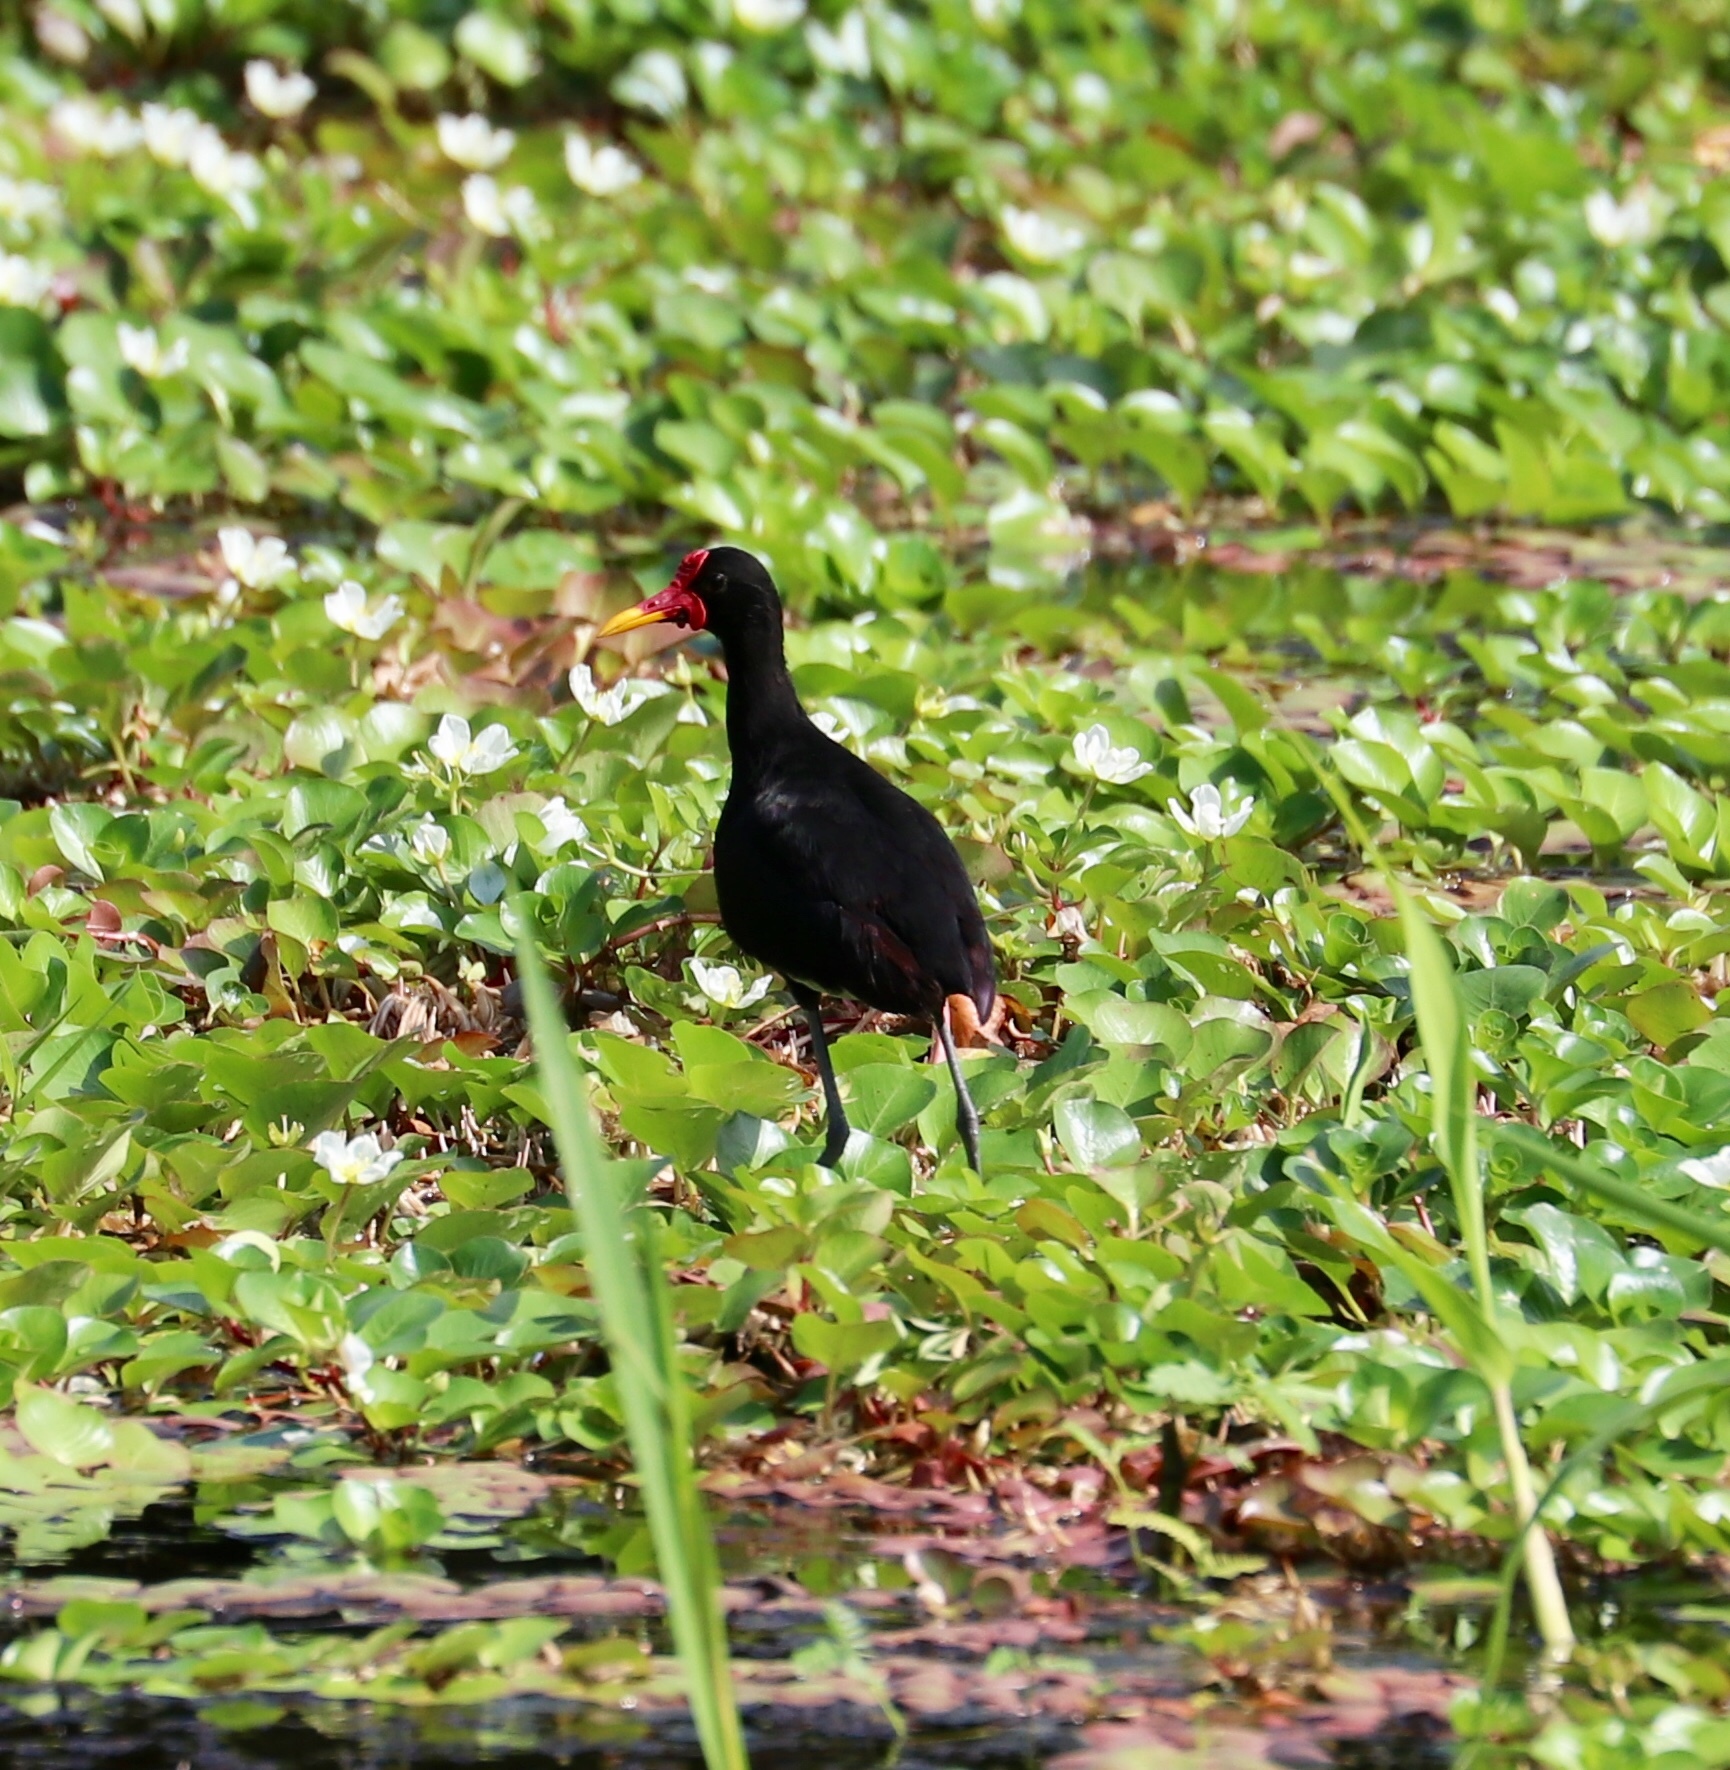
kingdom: Animalia
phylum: Chordata
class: Aves
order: Charadriiformes
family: Jacanidae
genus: Jacana
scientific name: Jacana jacana
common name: Wattled jacana
